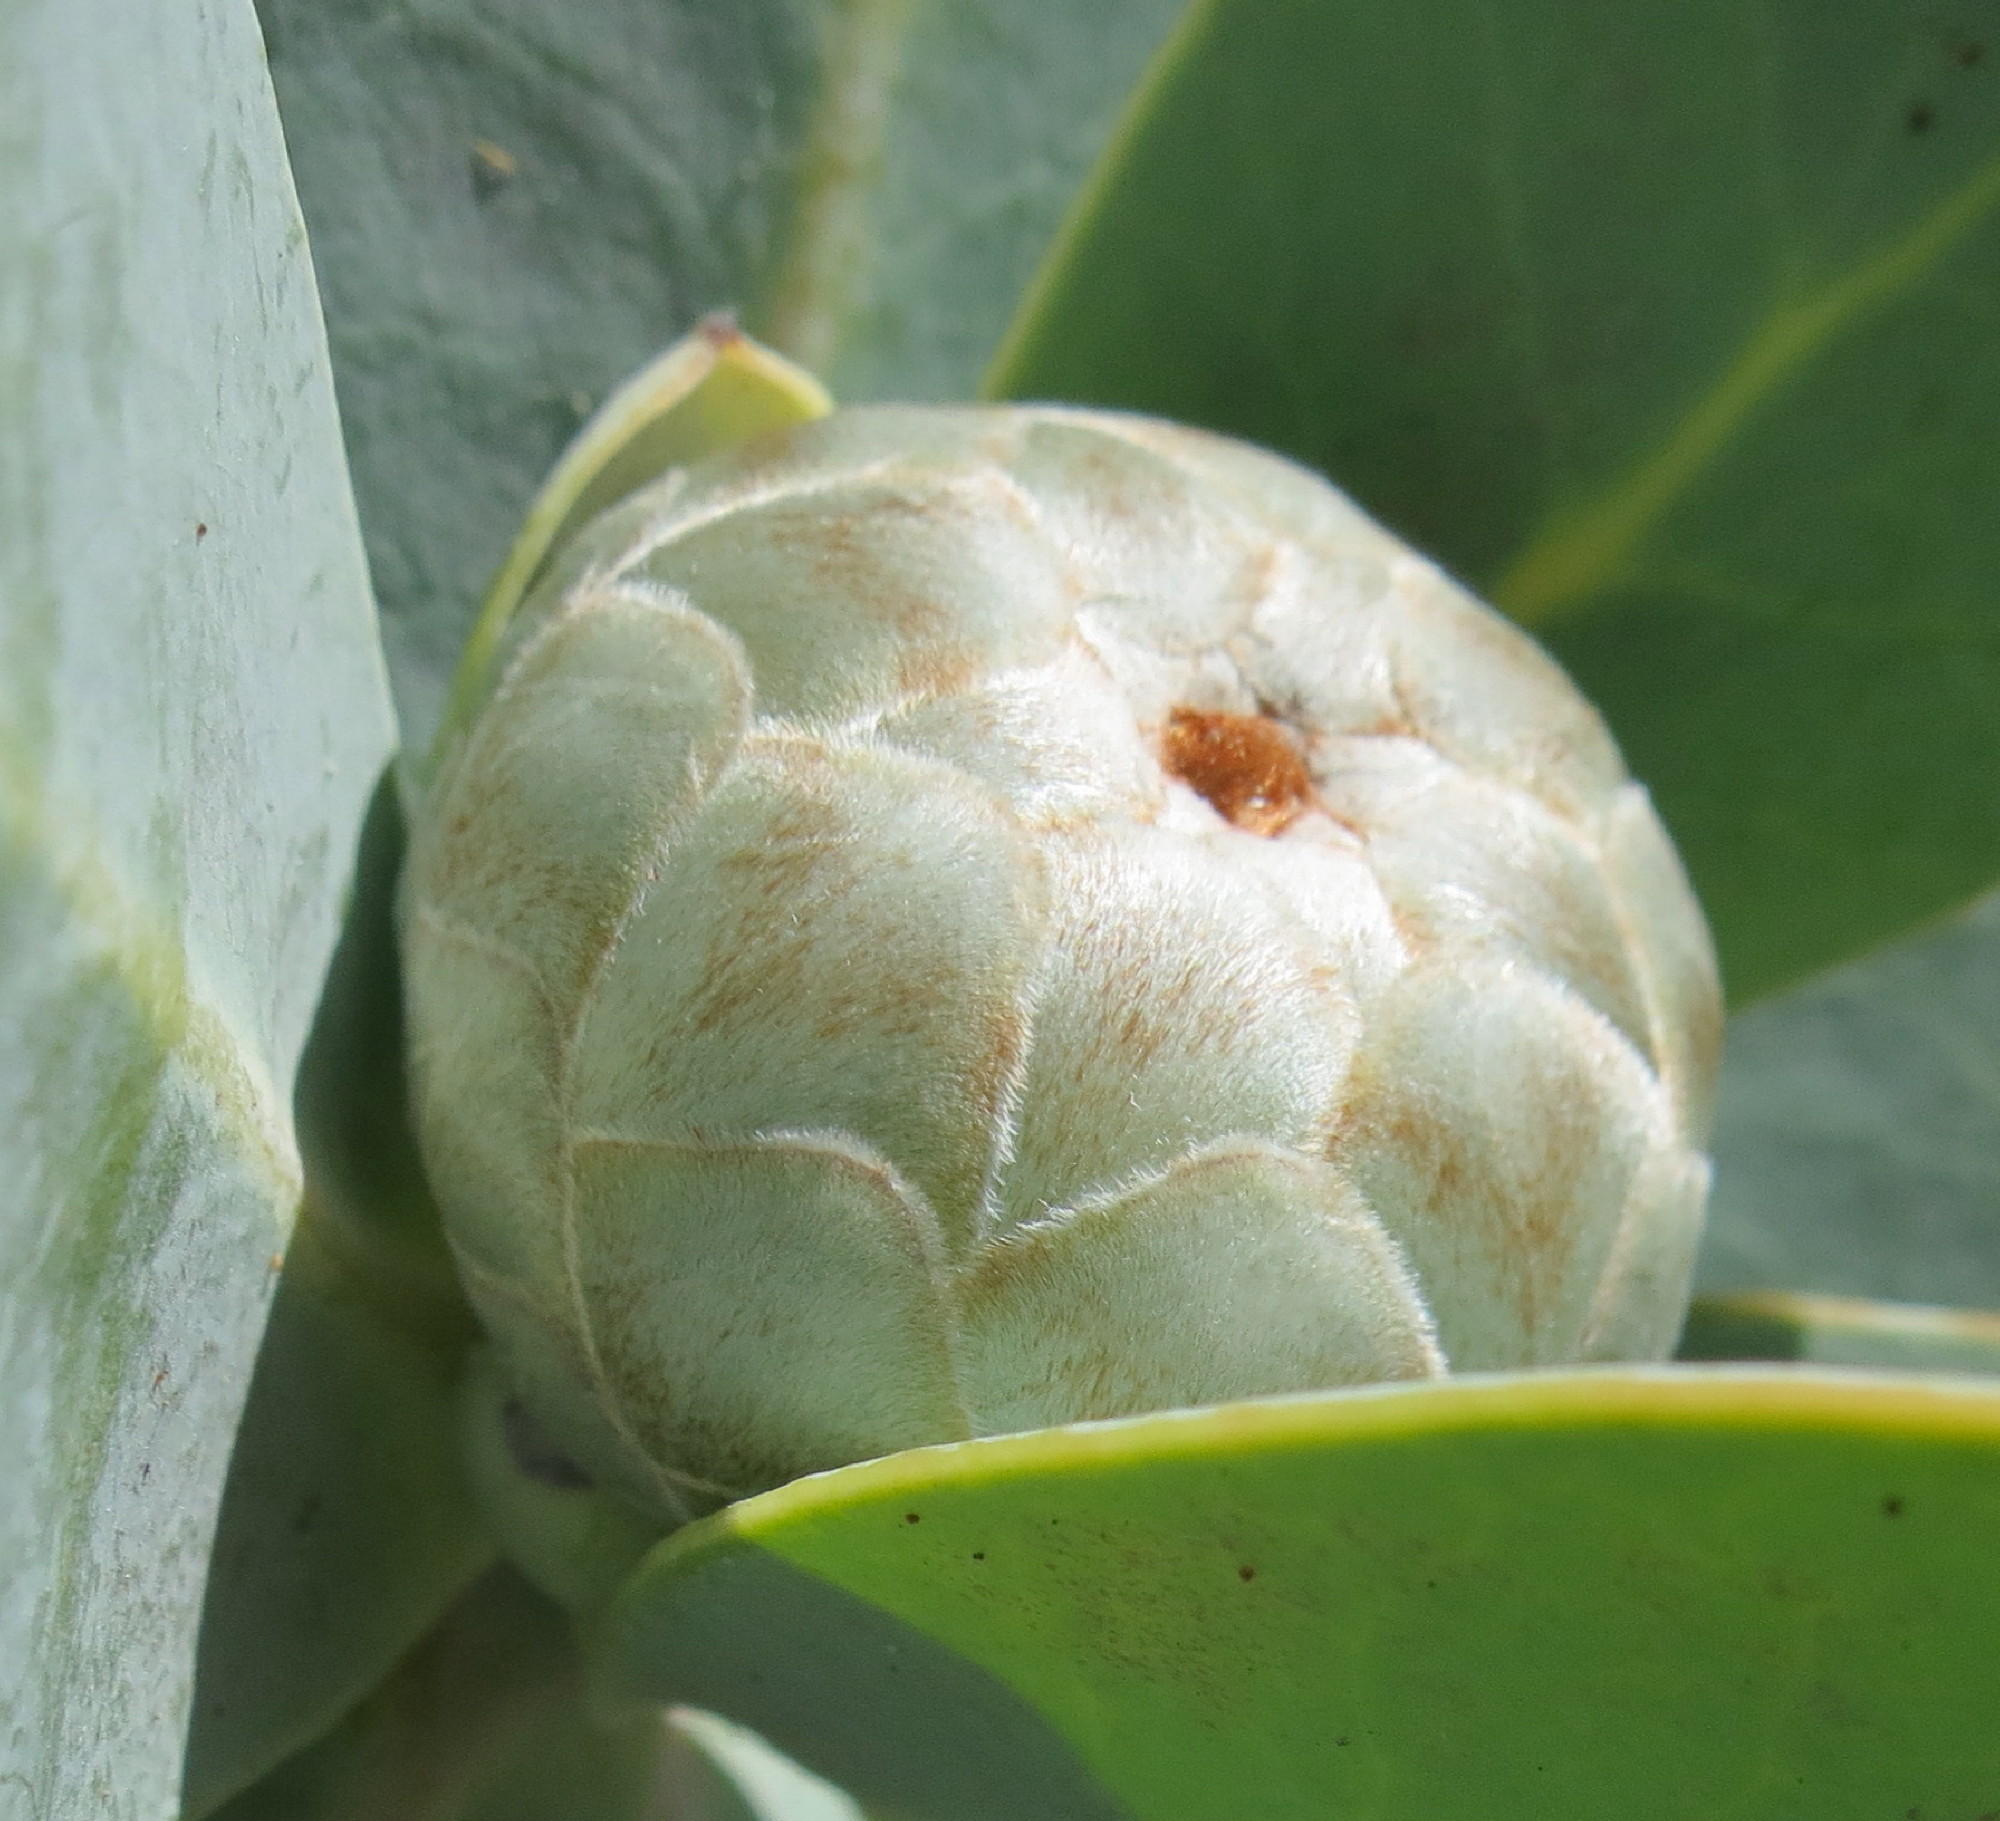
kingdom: Plantae
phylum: Tracheophyta
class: Magnoliopsida
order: Proteales
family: Proteaceae
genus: Protea
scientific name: Protea nitida
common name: Tree protea
